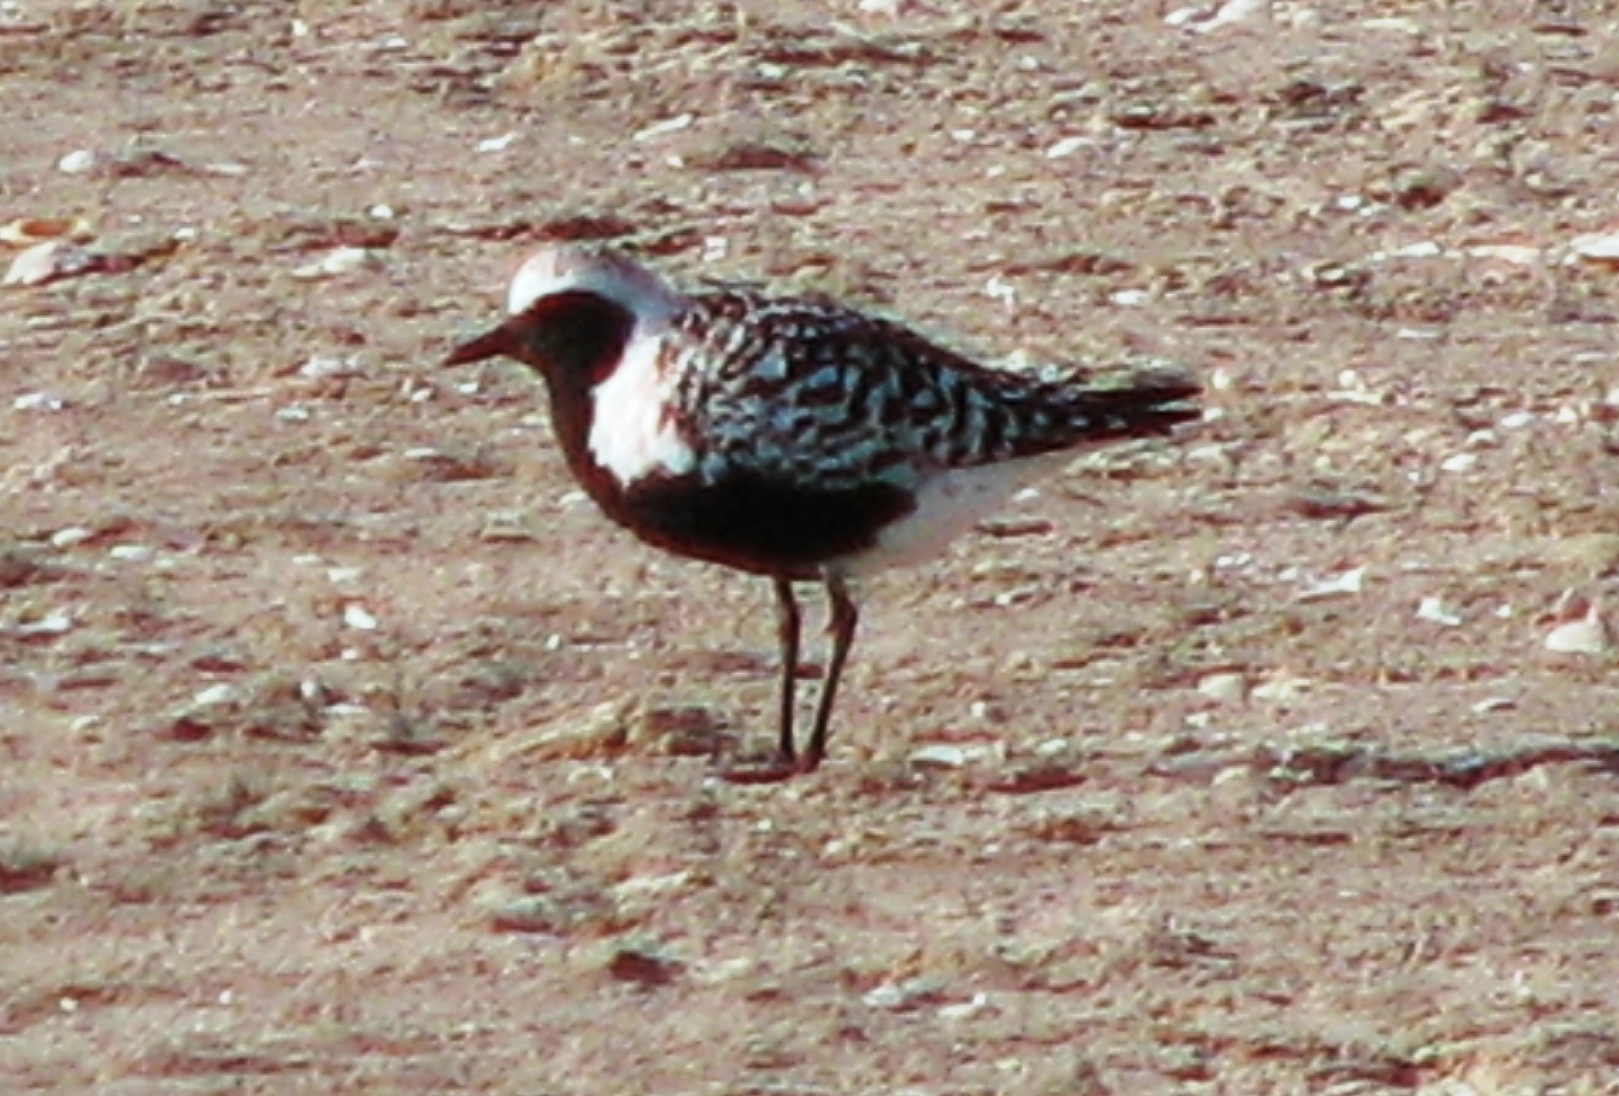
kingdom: Animalia
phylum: Chordata
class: Aves
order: Charadriiformes
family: Charadriidae
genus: Pluvialis
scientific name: Pluvialis squatarola
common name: Grey plover
